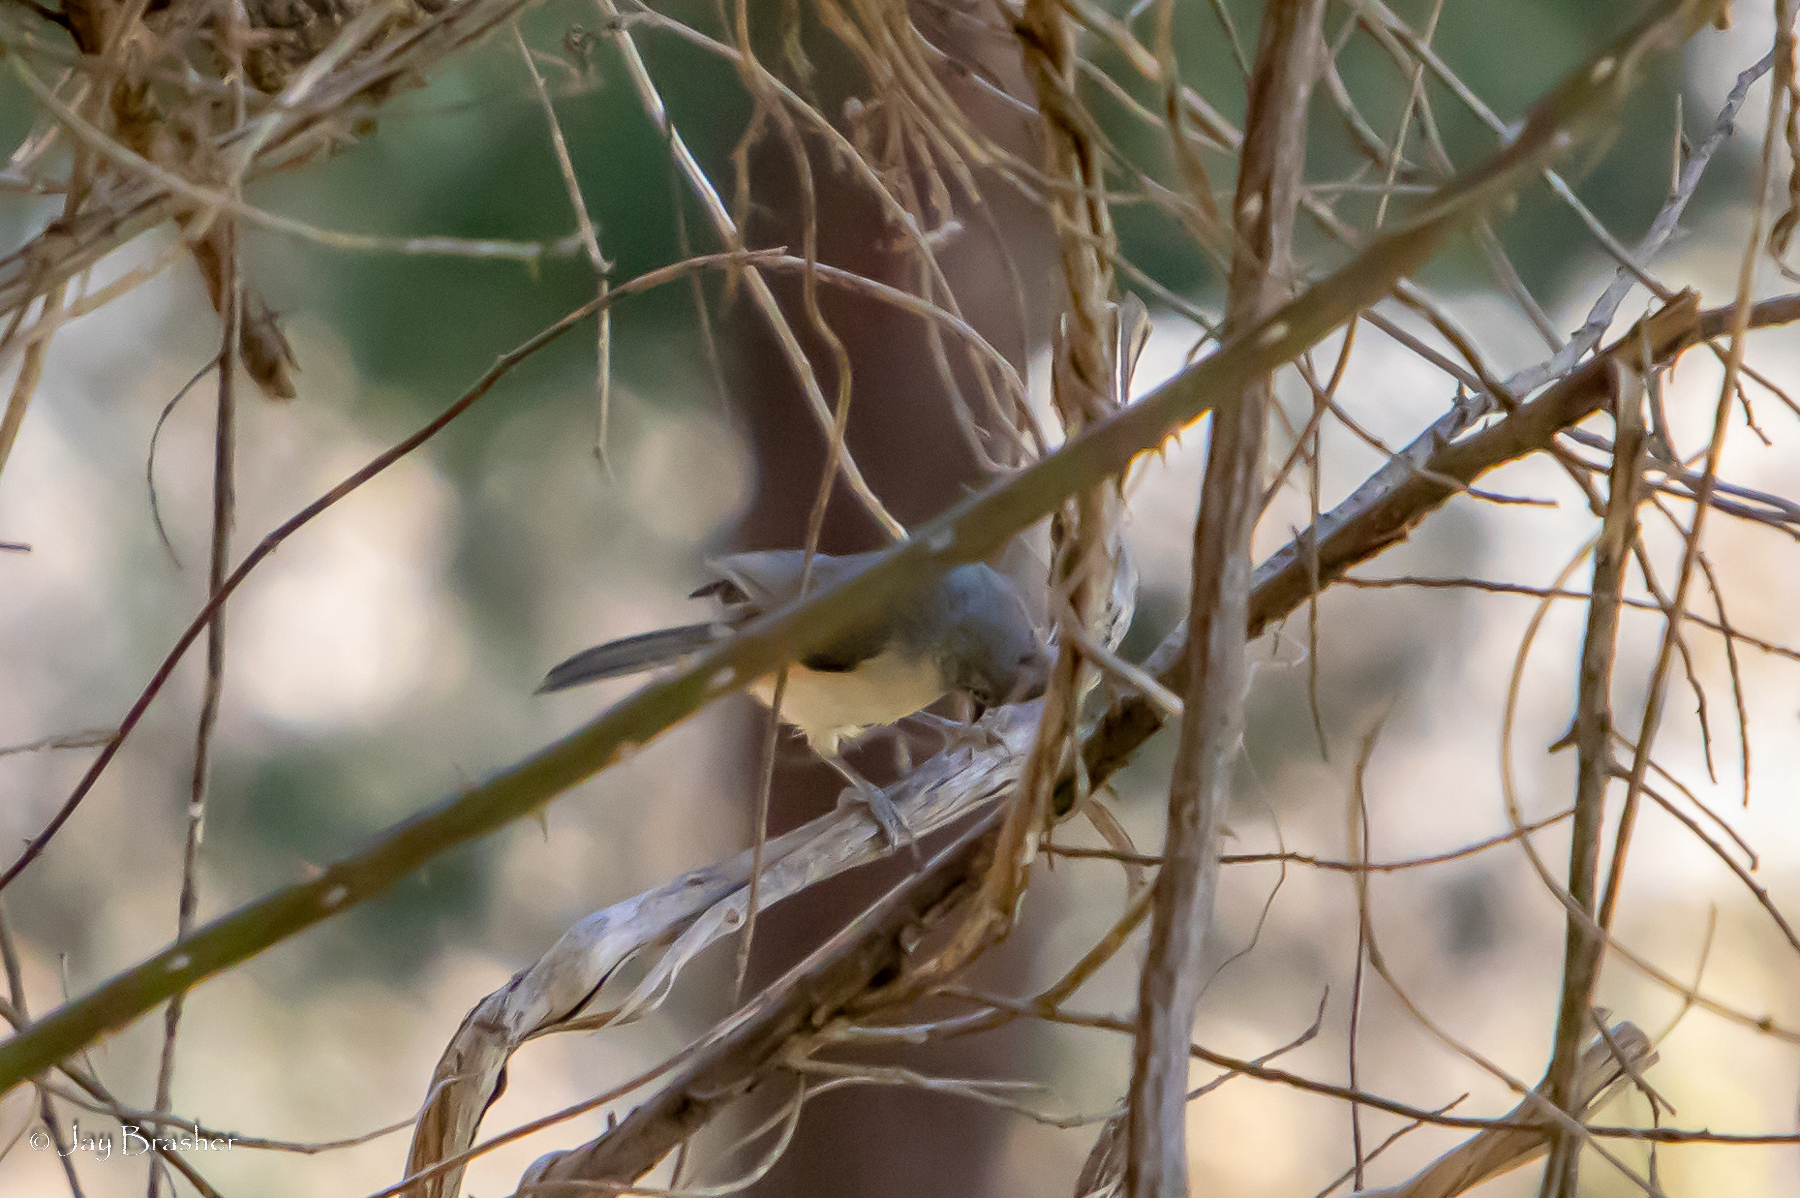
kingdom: Animalia
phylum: Chordata
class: Aves
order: Passeriformes
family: Paridae
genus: Baeolophus
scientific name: Baeolophus bicolor
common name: Tufted titmouse
